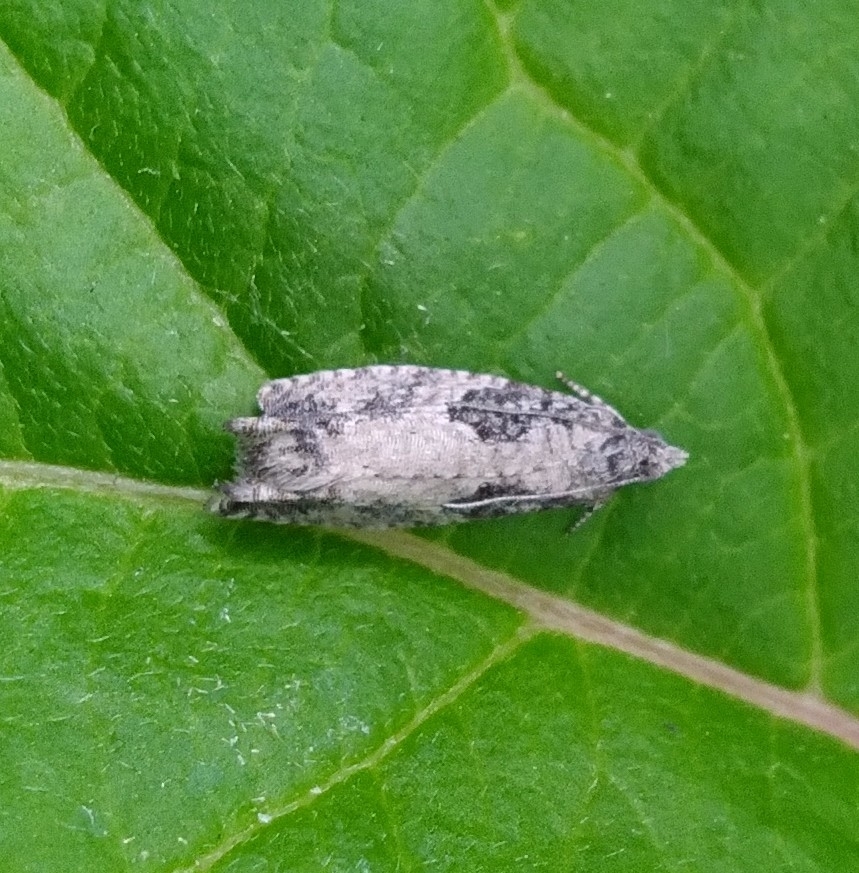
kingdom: Animalia
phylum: Arthropoda
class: Insecta
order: Lepidoptera
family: Tortricidae
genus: Epinotia
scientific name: Epinotia cinereana
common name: Grey aspen bell
